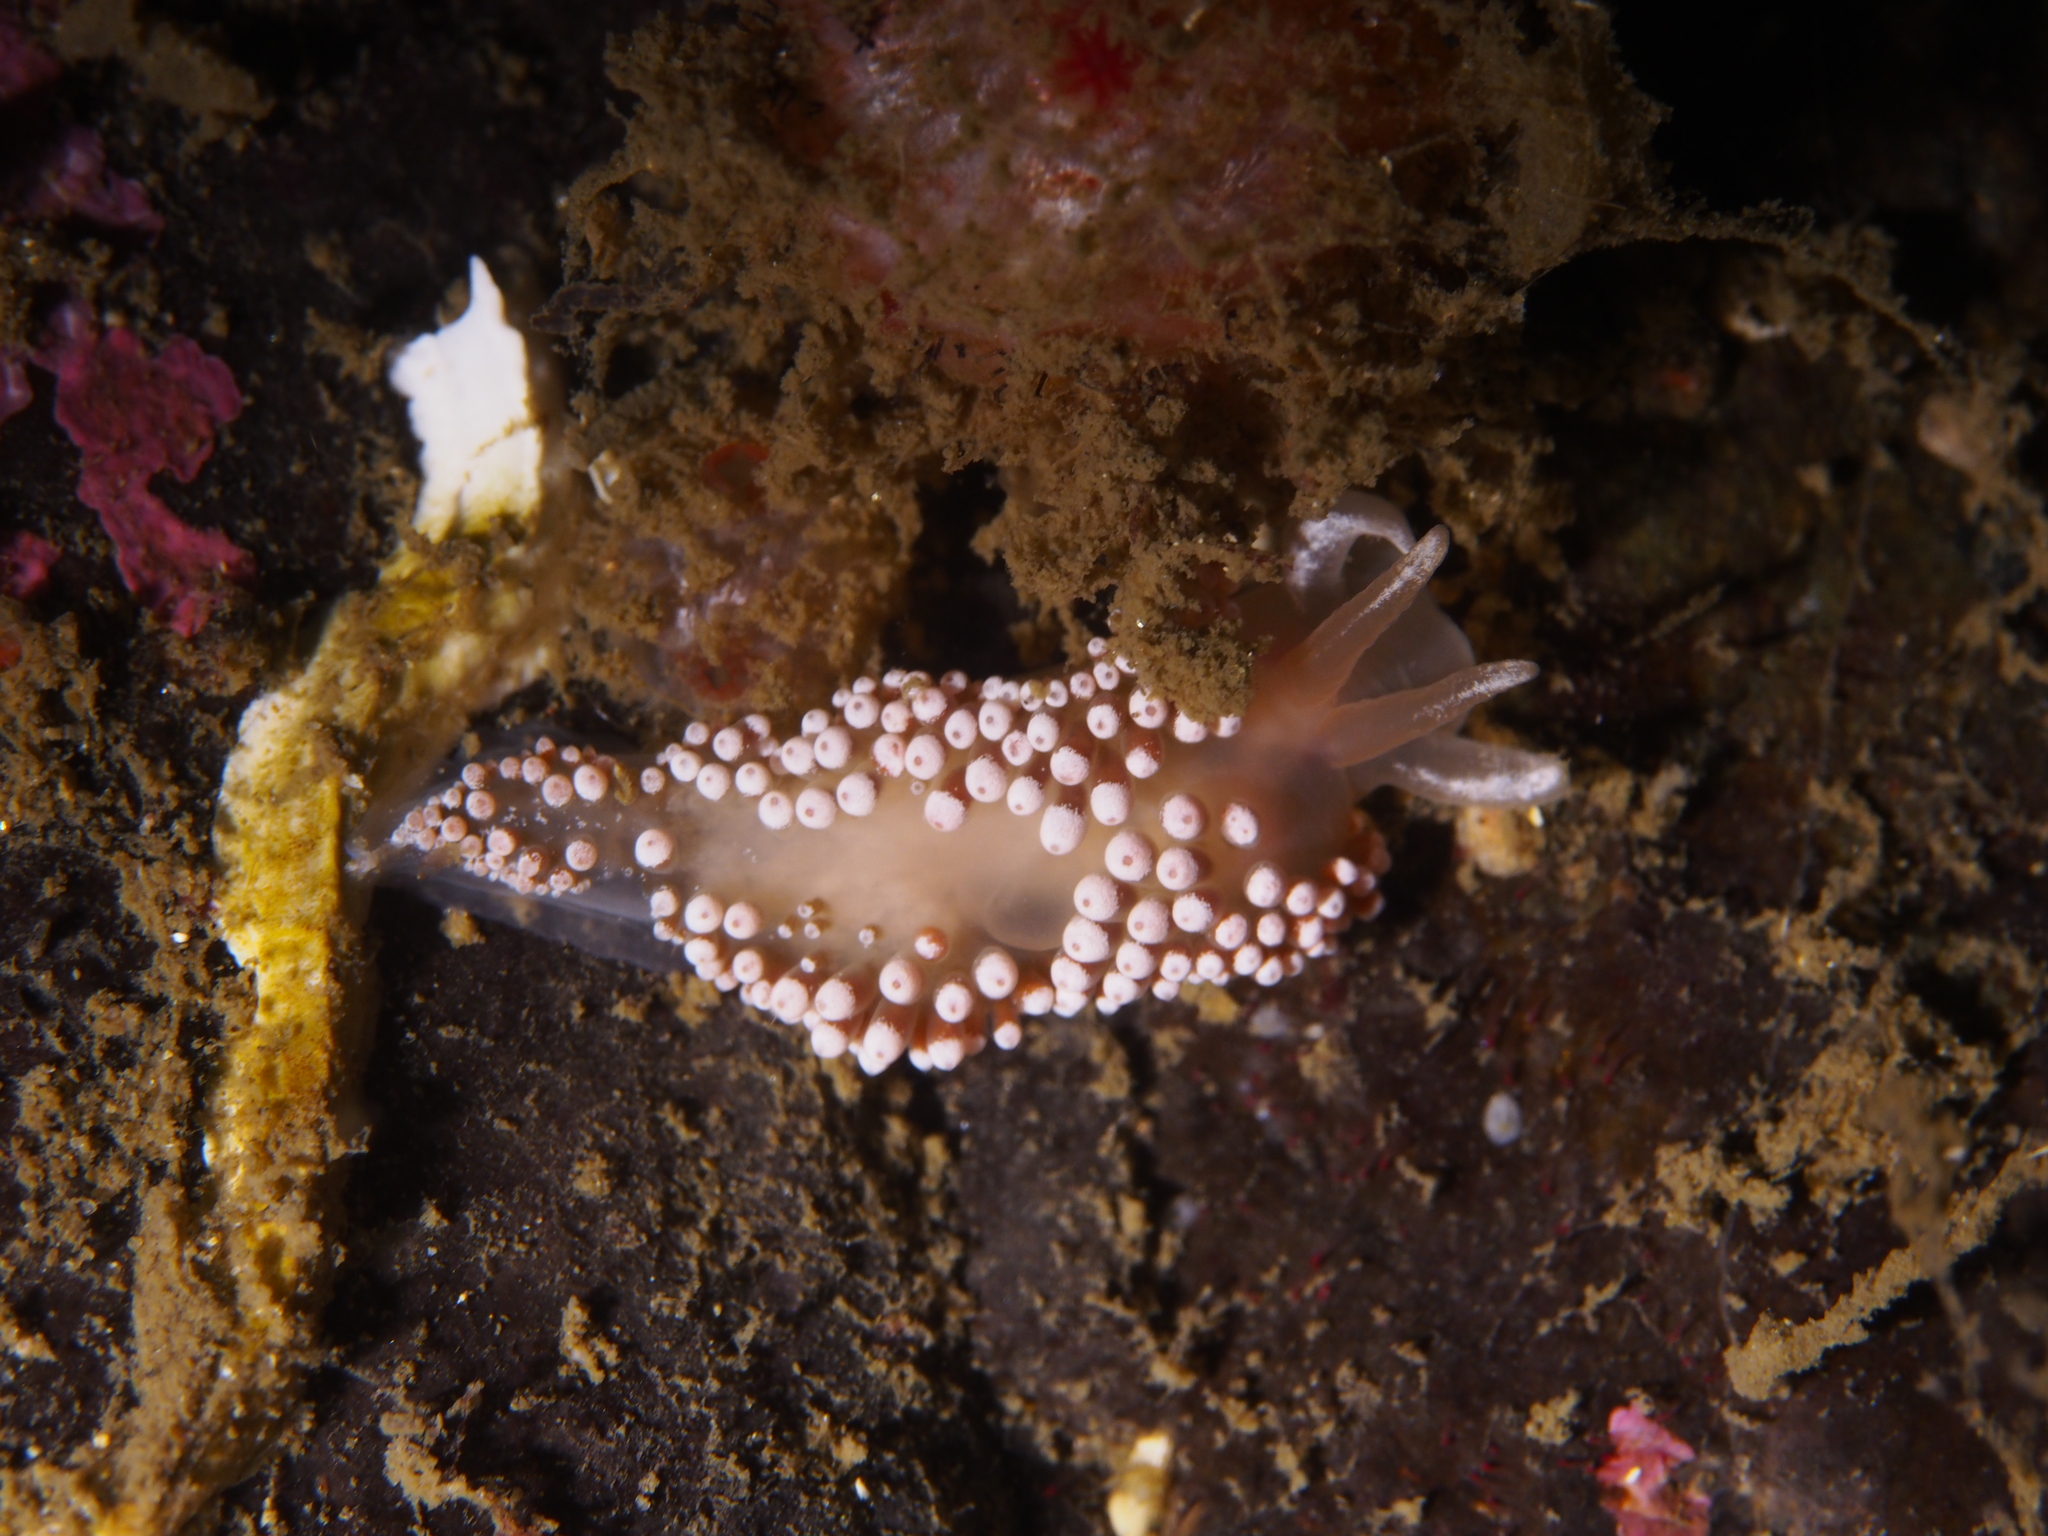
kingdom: Animalia
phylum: Mollusca
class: Gastropoda
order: Nudibranchia
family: Coryphellidae
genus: Coryphella
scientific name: Coryphella verrucosa
